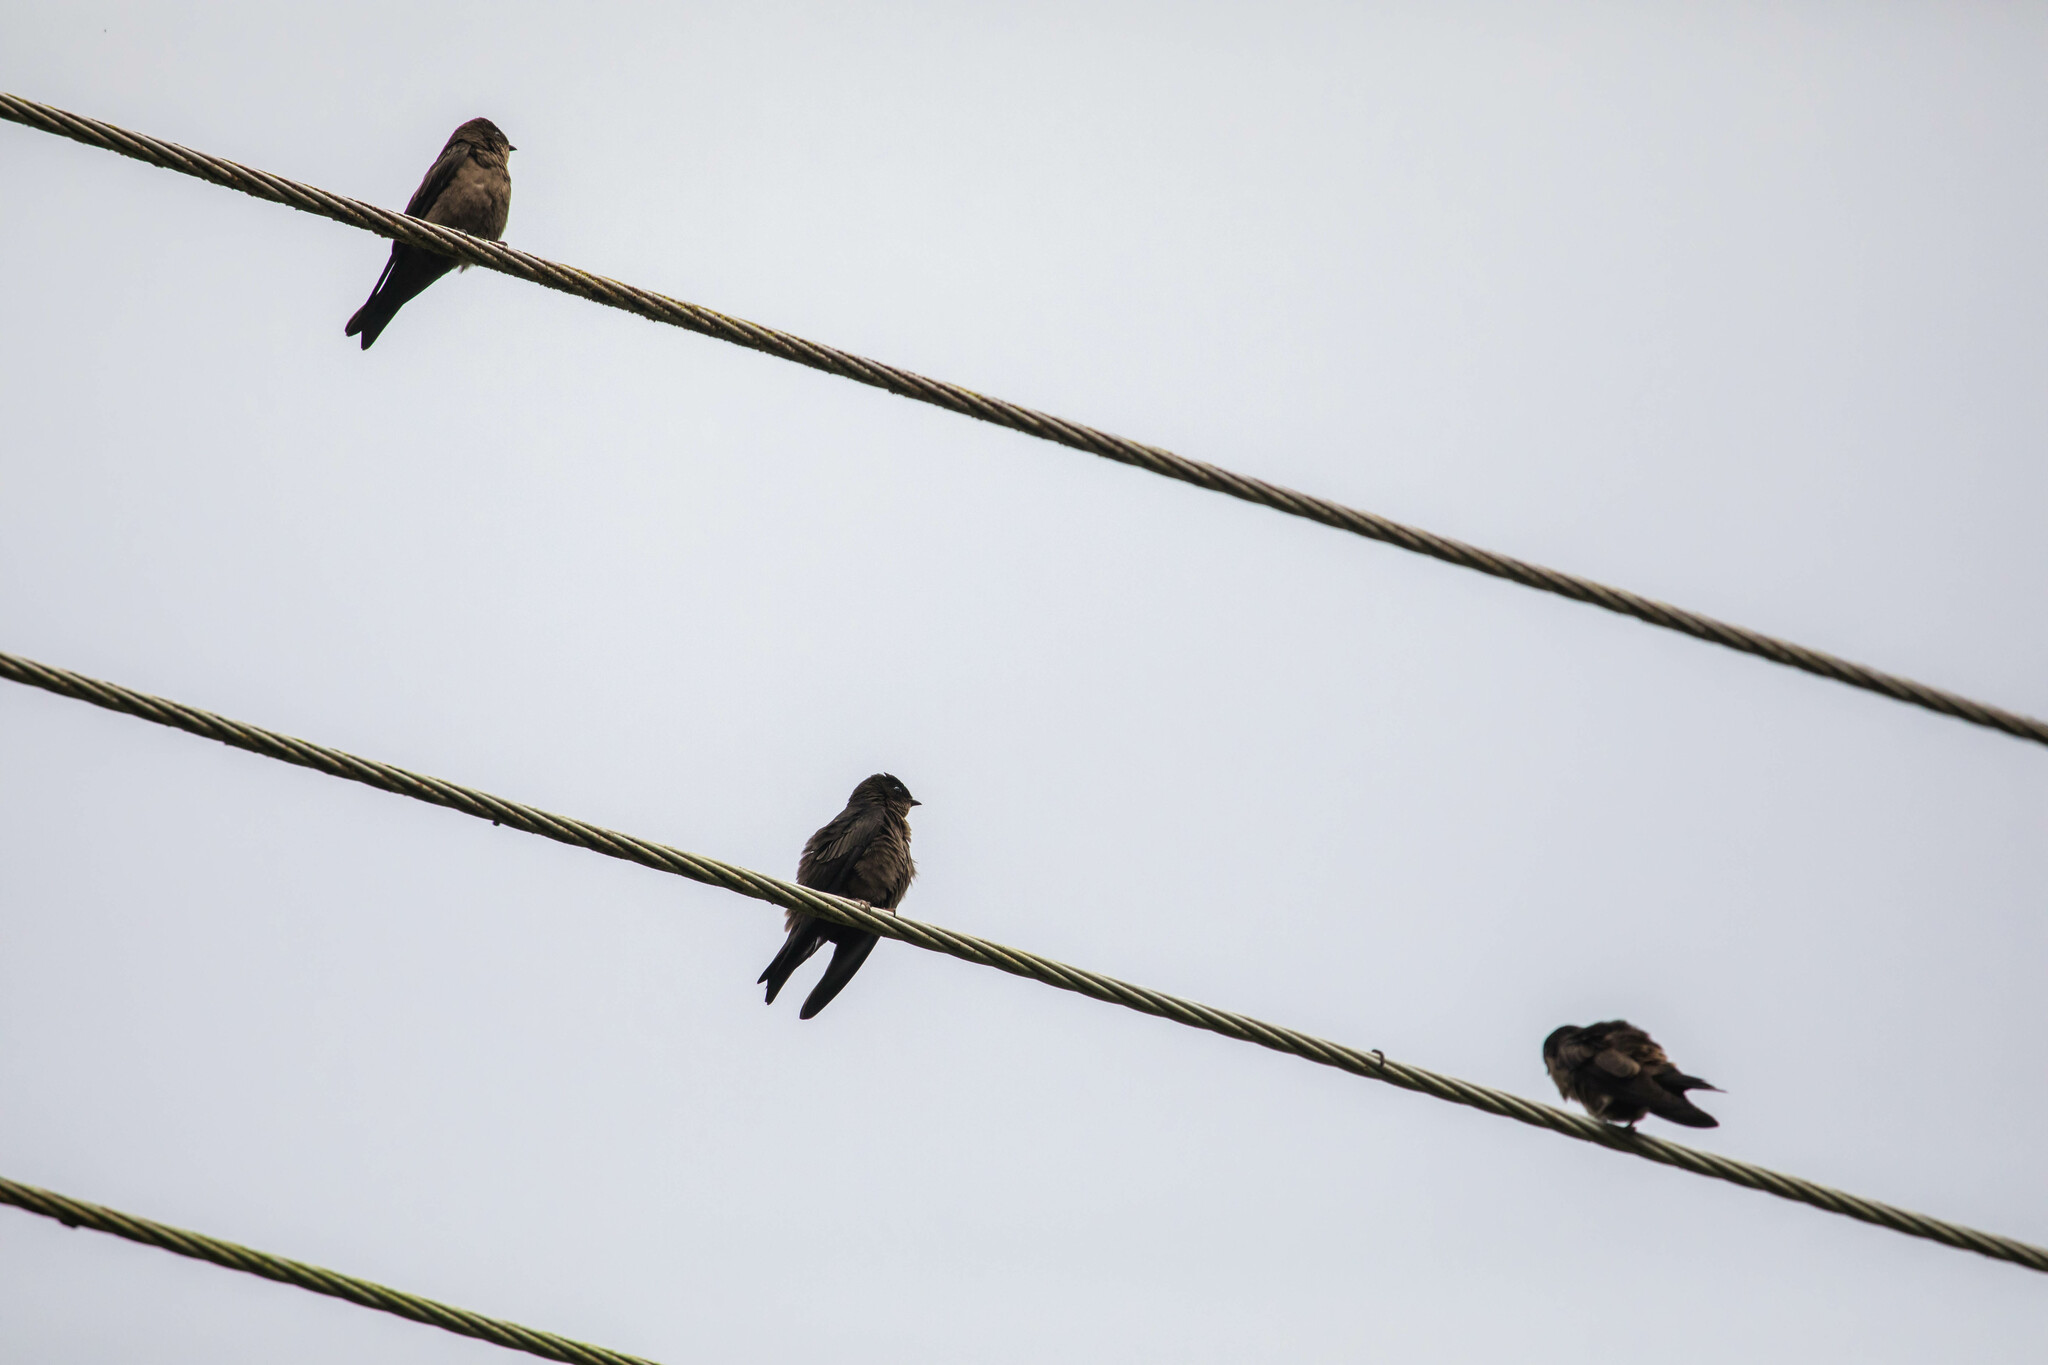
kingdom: Animalia
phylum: Chordata
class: Aves
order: Passeriformes
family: Hirundinidae
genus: Neochelidon
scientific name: Neochelidon tibialis
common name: White-thighed swallow
